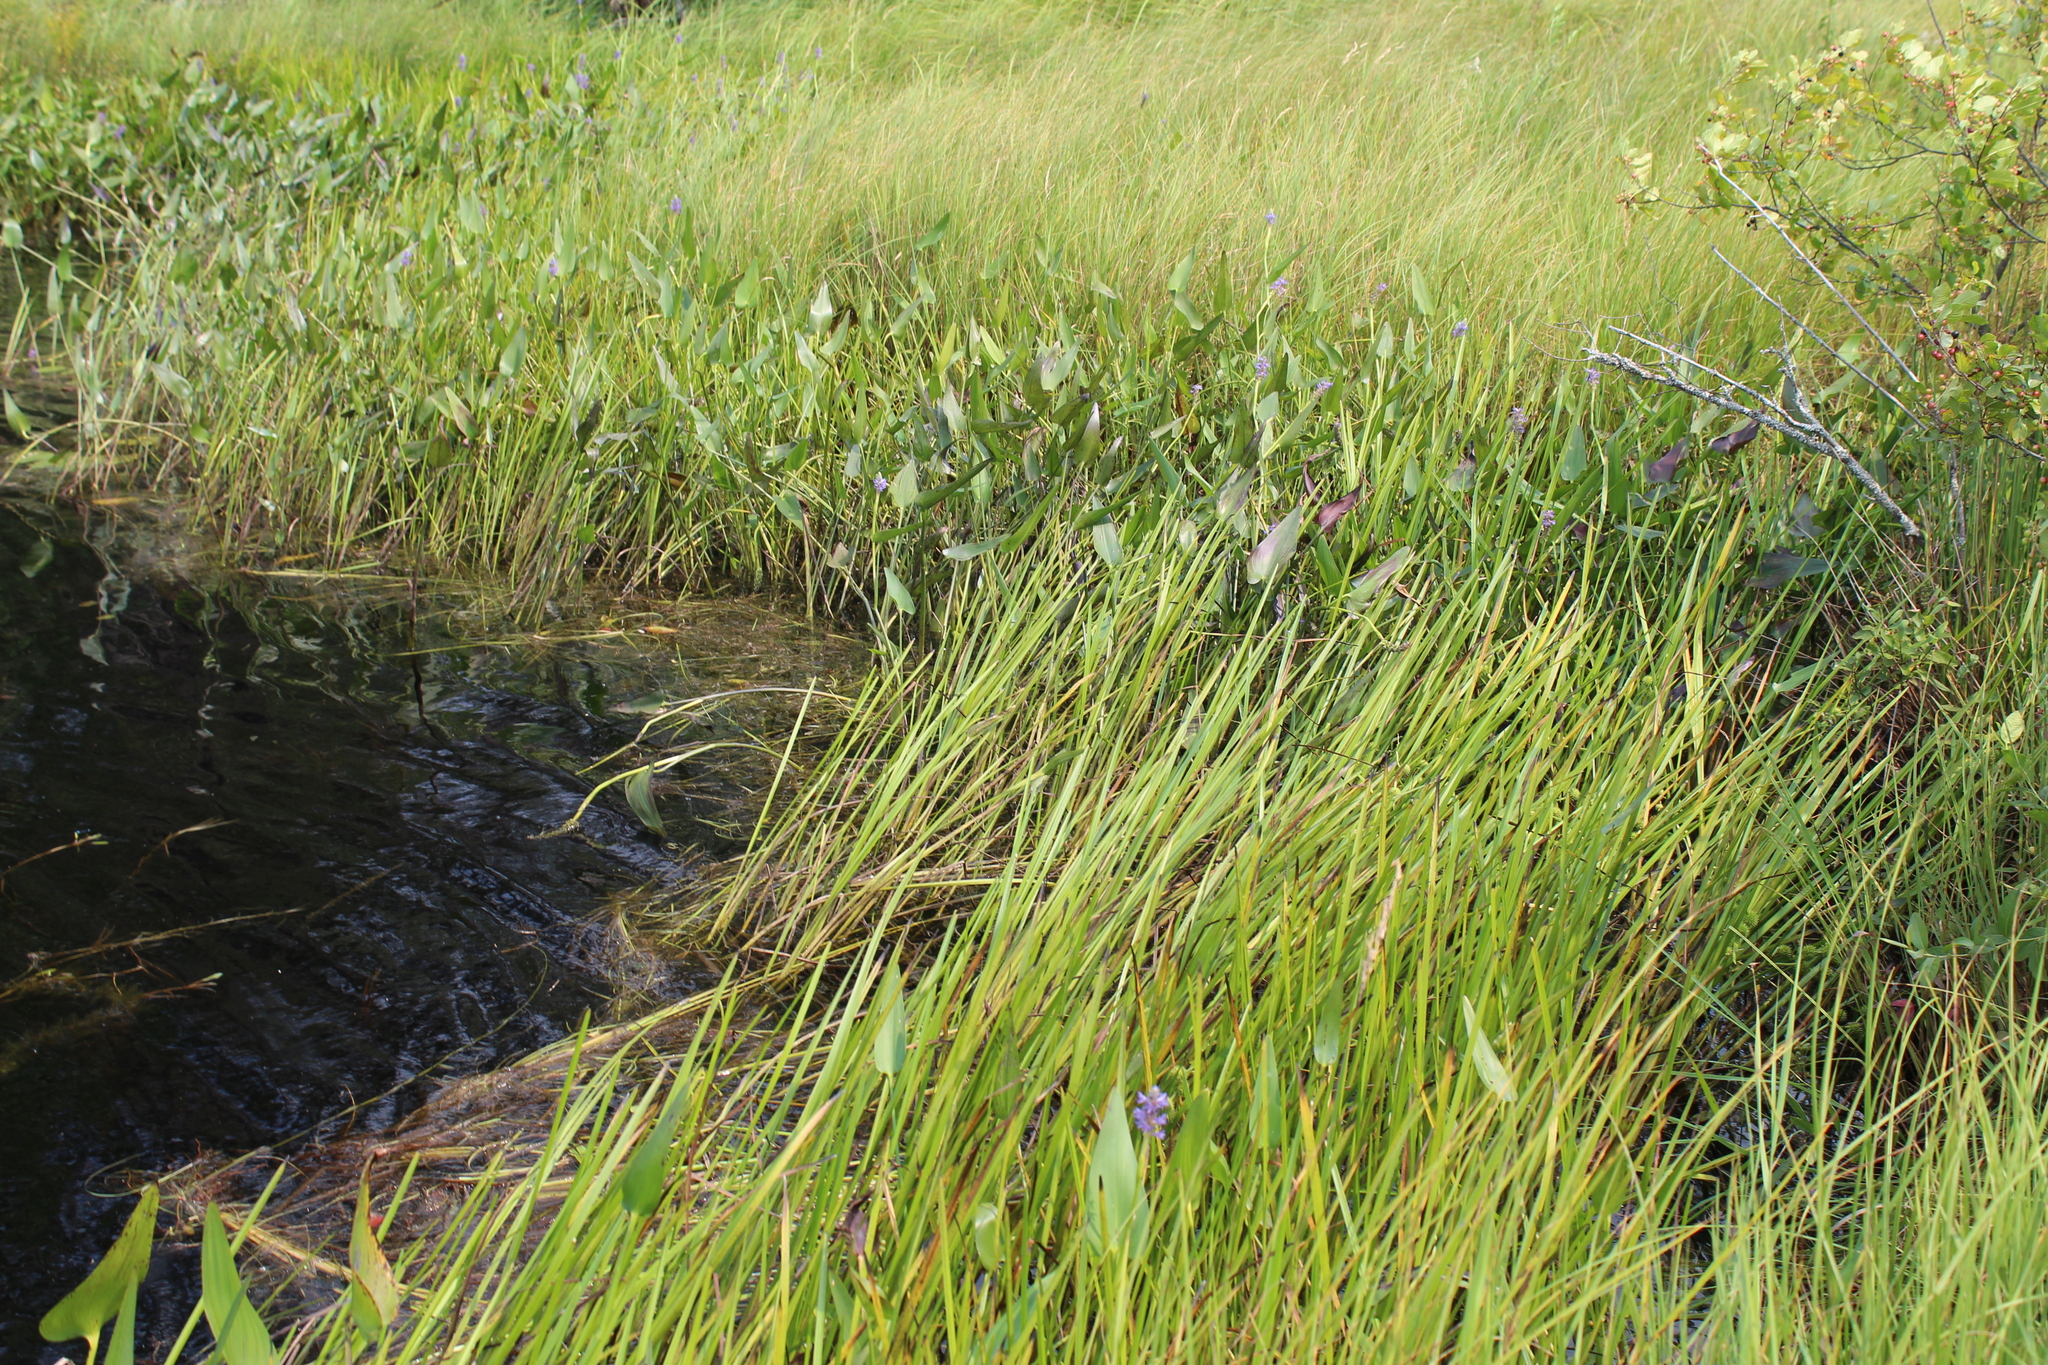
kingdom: Plantae
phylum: Tracheophyta
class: Liliopsida
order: Commelinales
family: Pontederiaceae
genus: Pontederia
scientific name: Pontederia cordata
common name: Pickerelweed
